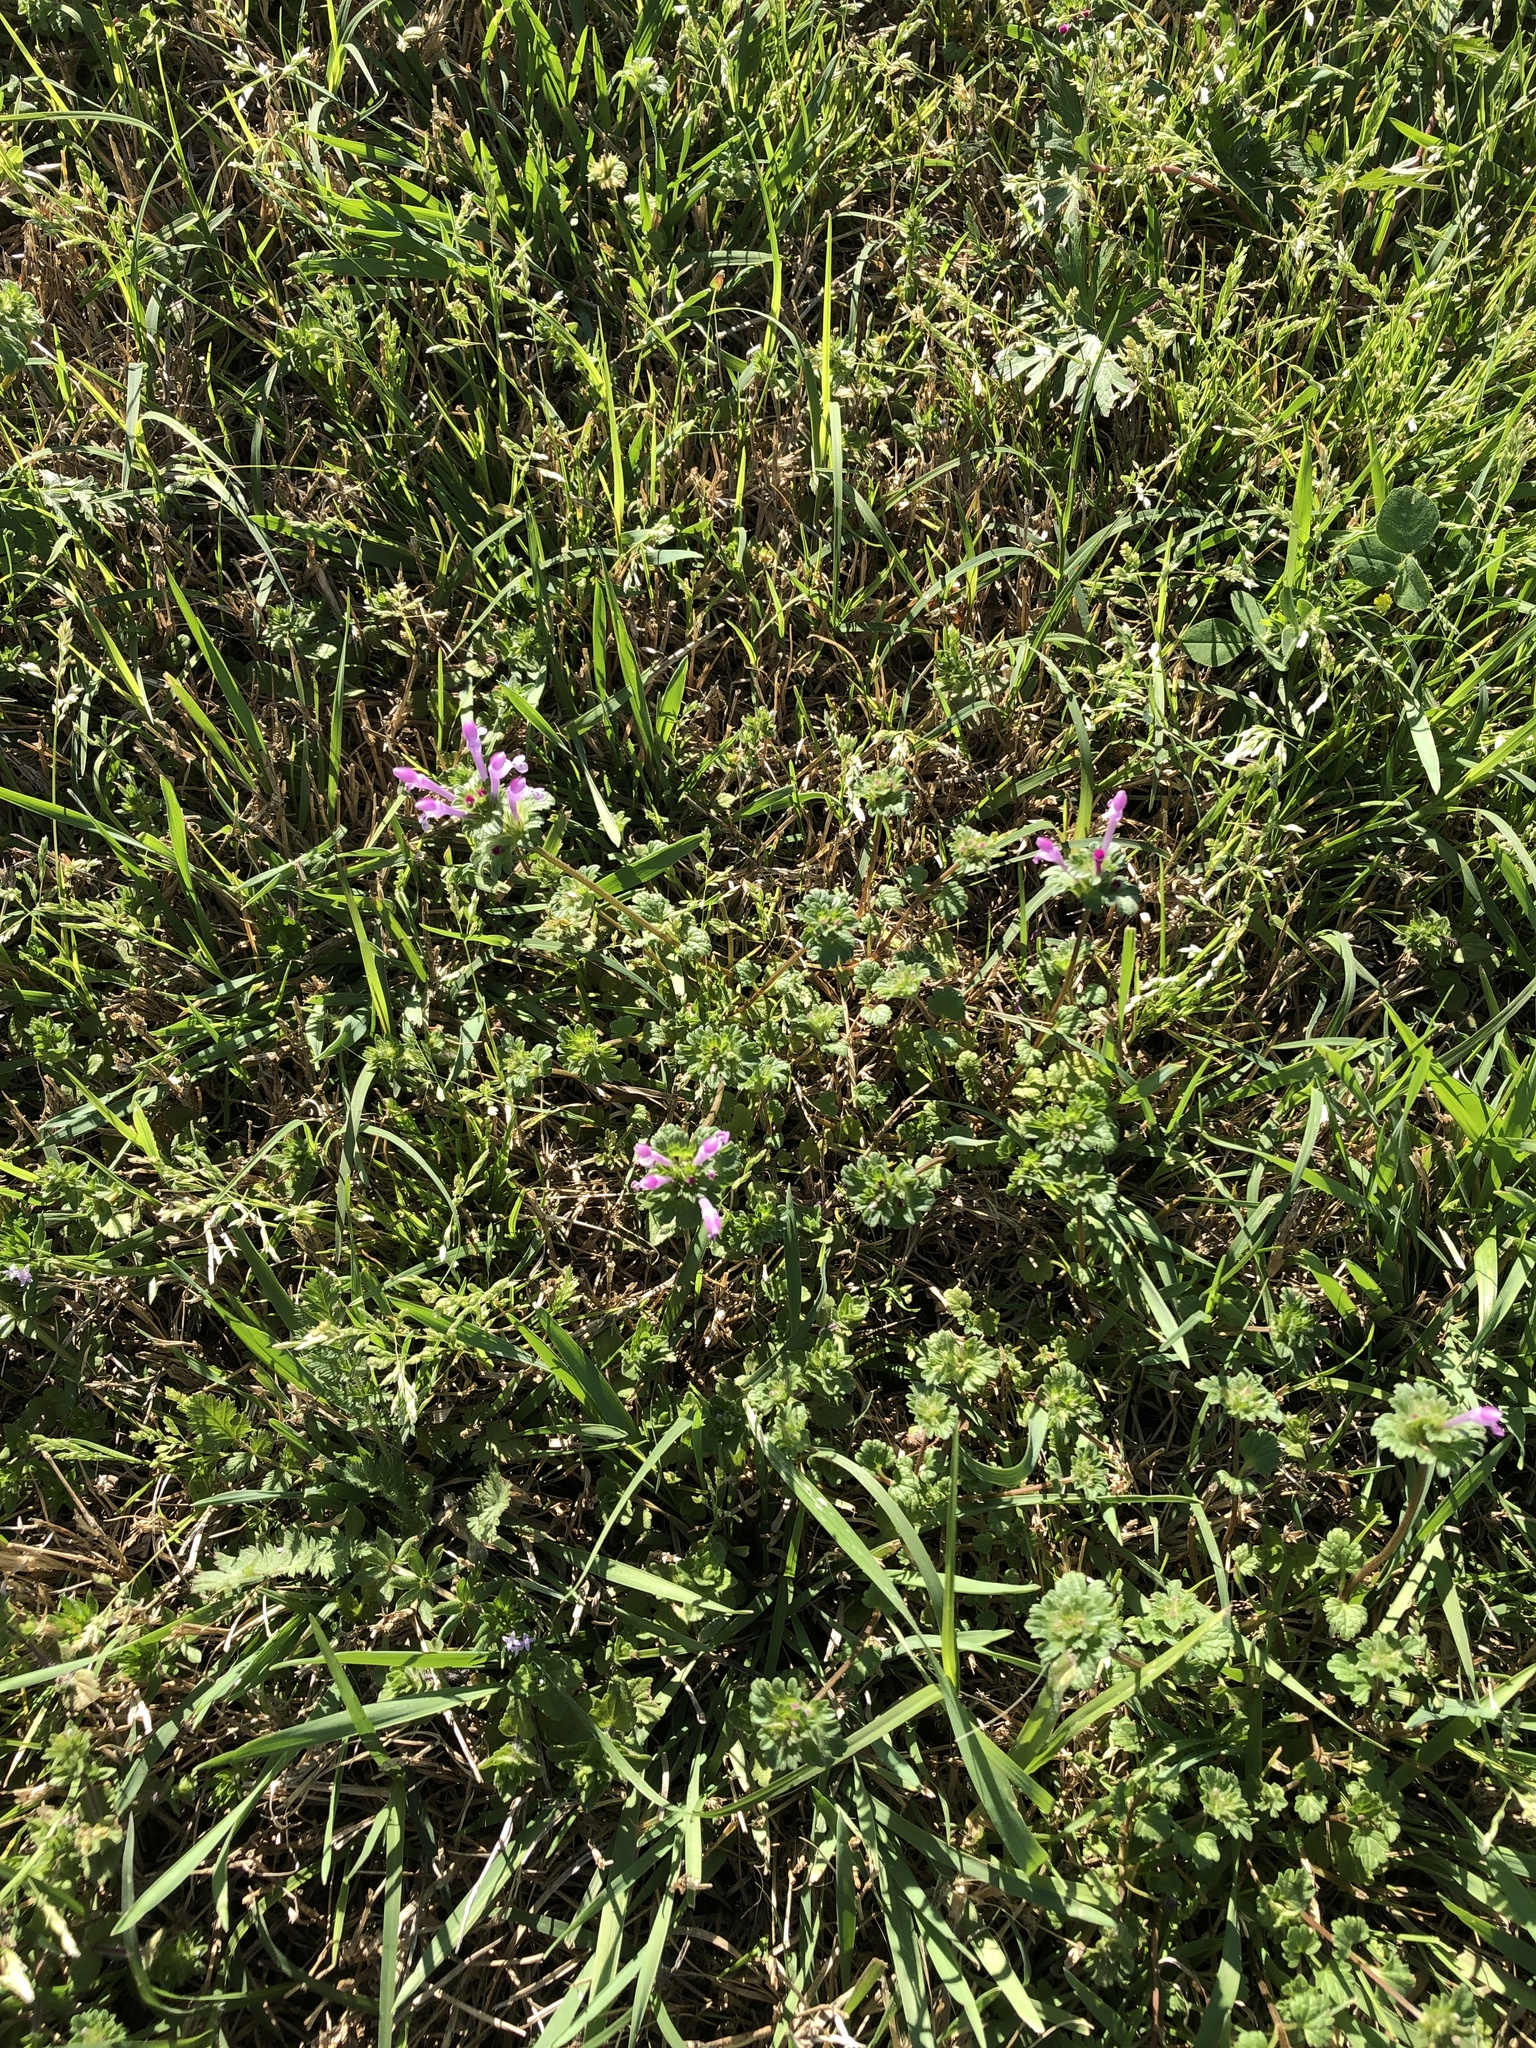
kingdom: Plantae
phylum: Tracheophyta
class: Magnoliopsida
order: Lamiales
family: Lamiaceae
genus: Lamium
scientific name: Lamium amplexicaule
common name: Henbit dead-nettle
